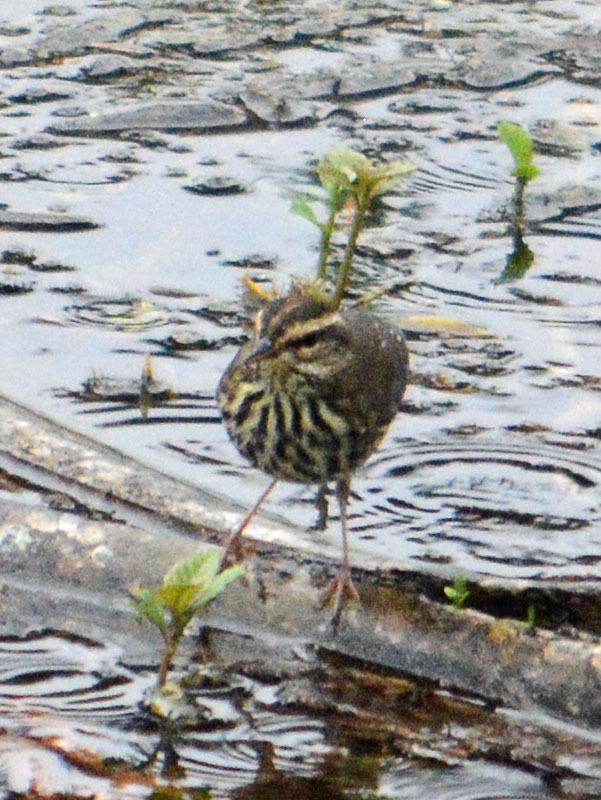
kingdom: Animalia
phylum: Chordata
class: Aves
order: Passeriformes
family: Parulidae
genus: Parkesia
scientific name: Parkesia noveboracensis
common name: Northern waterthrush
